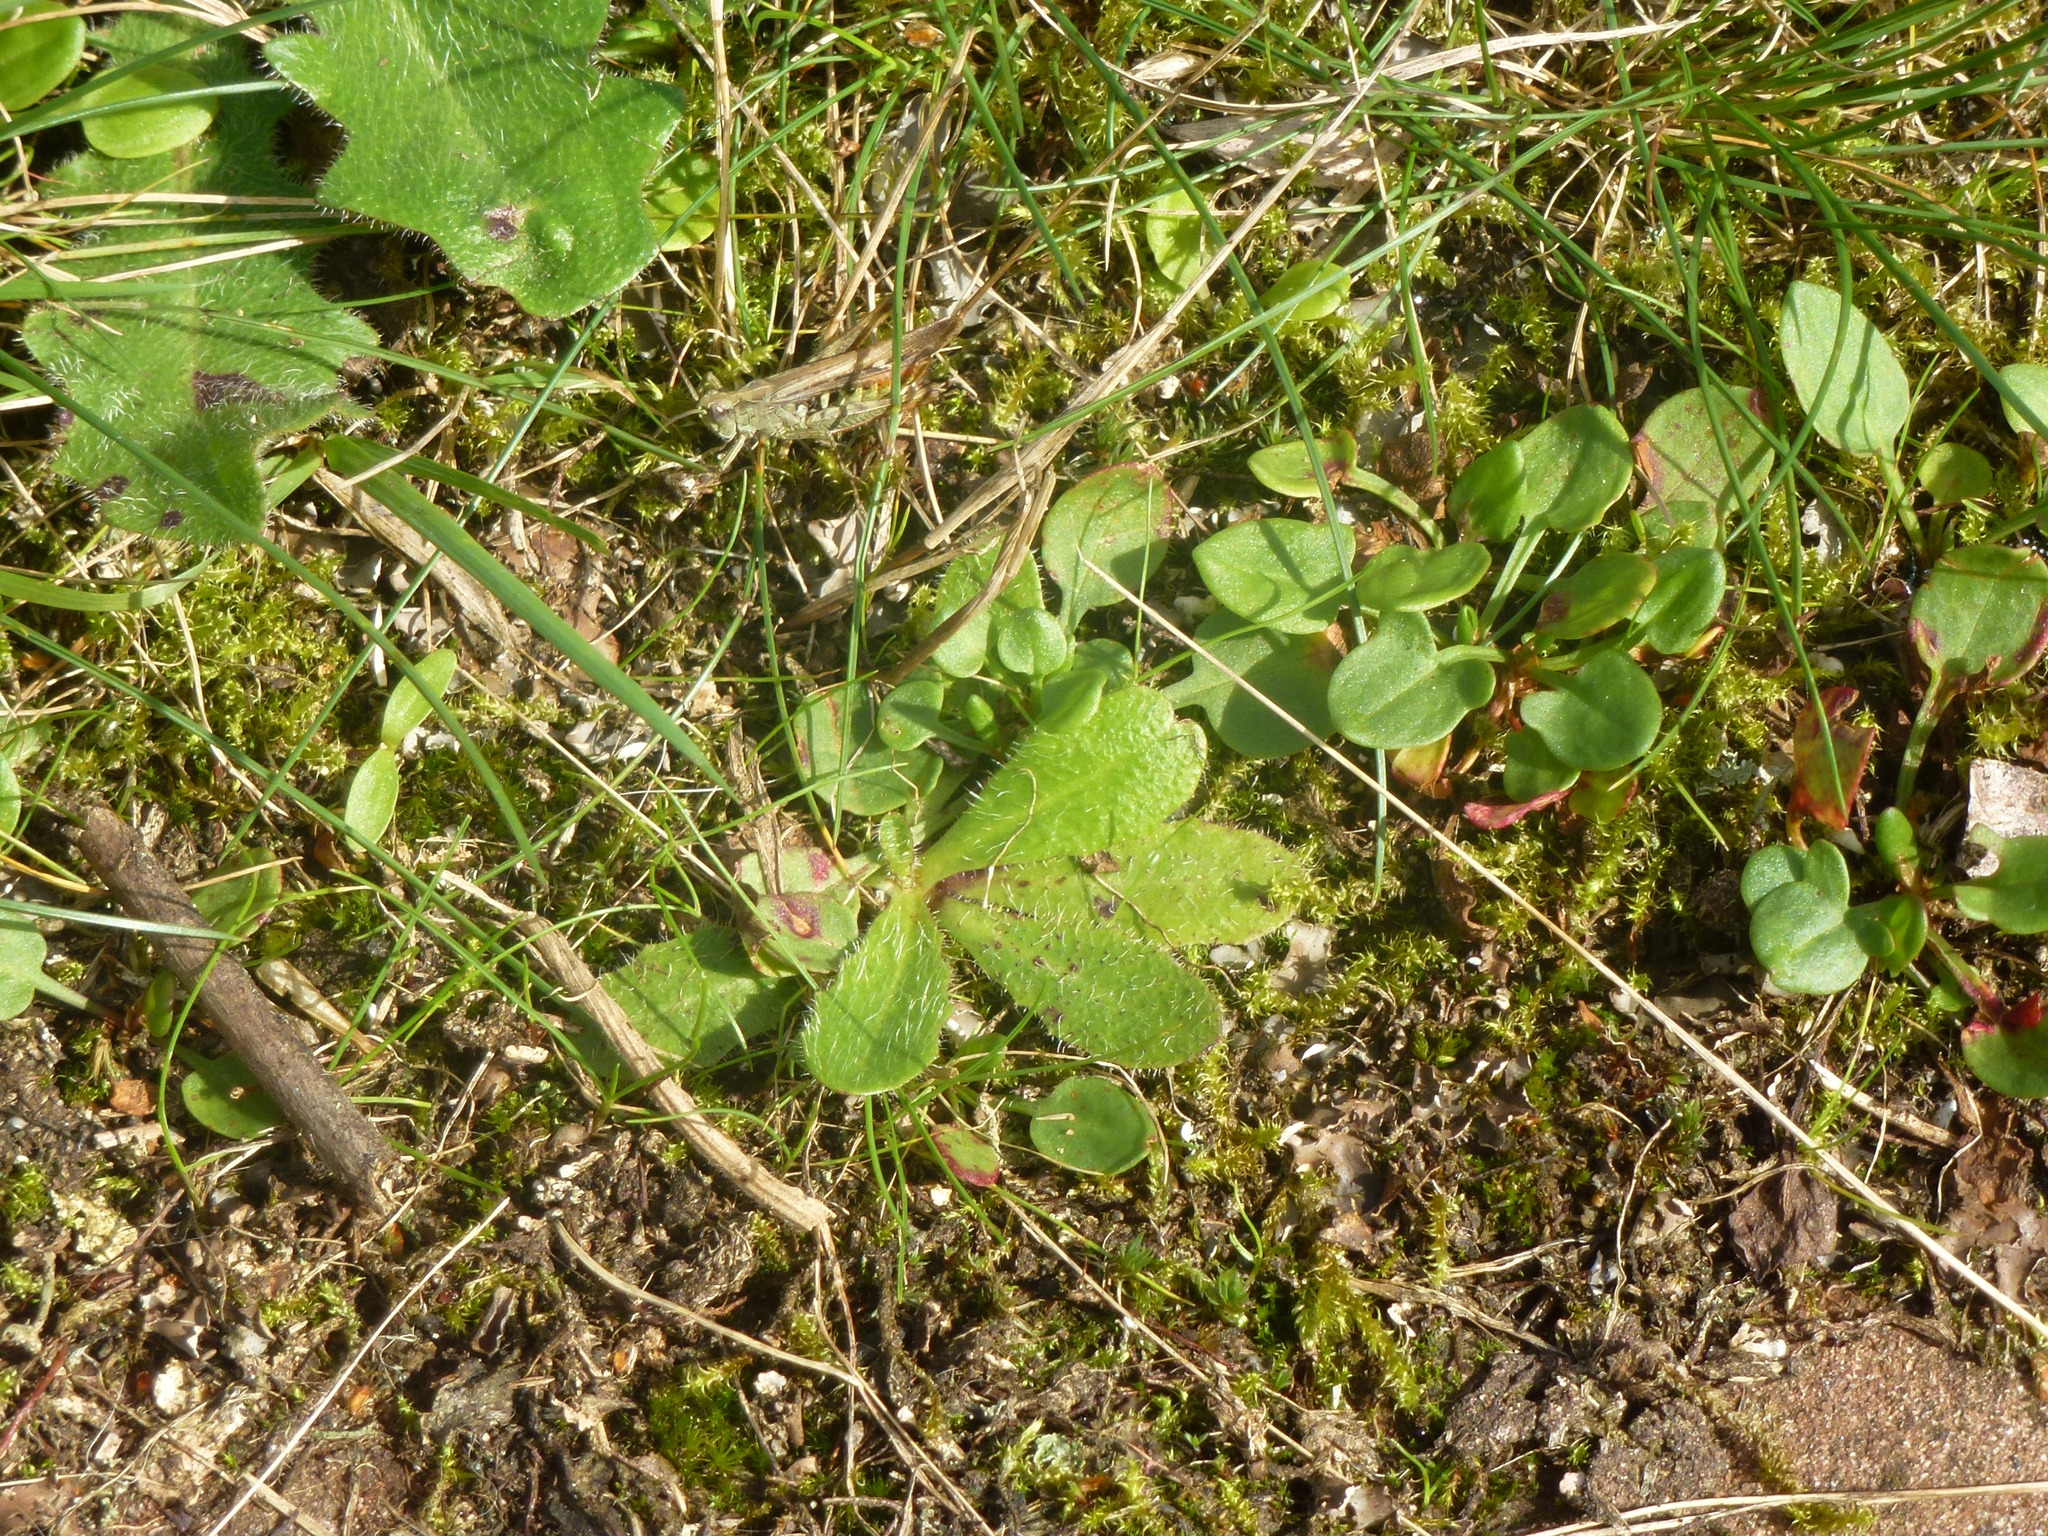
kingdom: Plantae
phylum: Tracheophyta
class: Magnoliopsida
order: Asterales
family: Asteraceae
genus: Hypochaeris
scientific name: Hypochaeris radicata
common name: Flatweed
